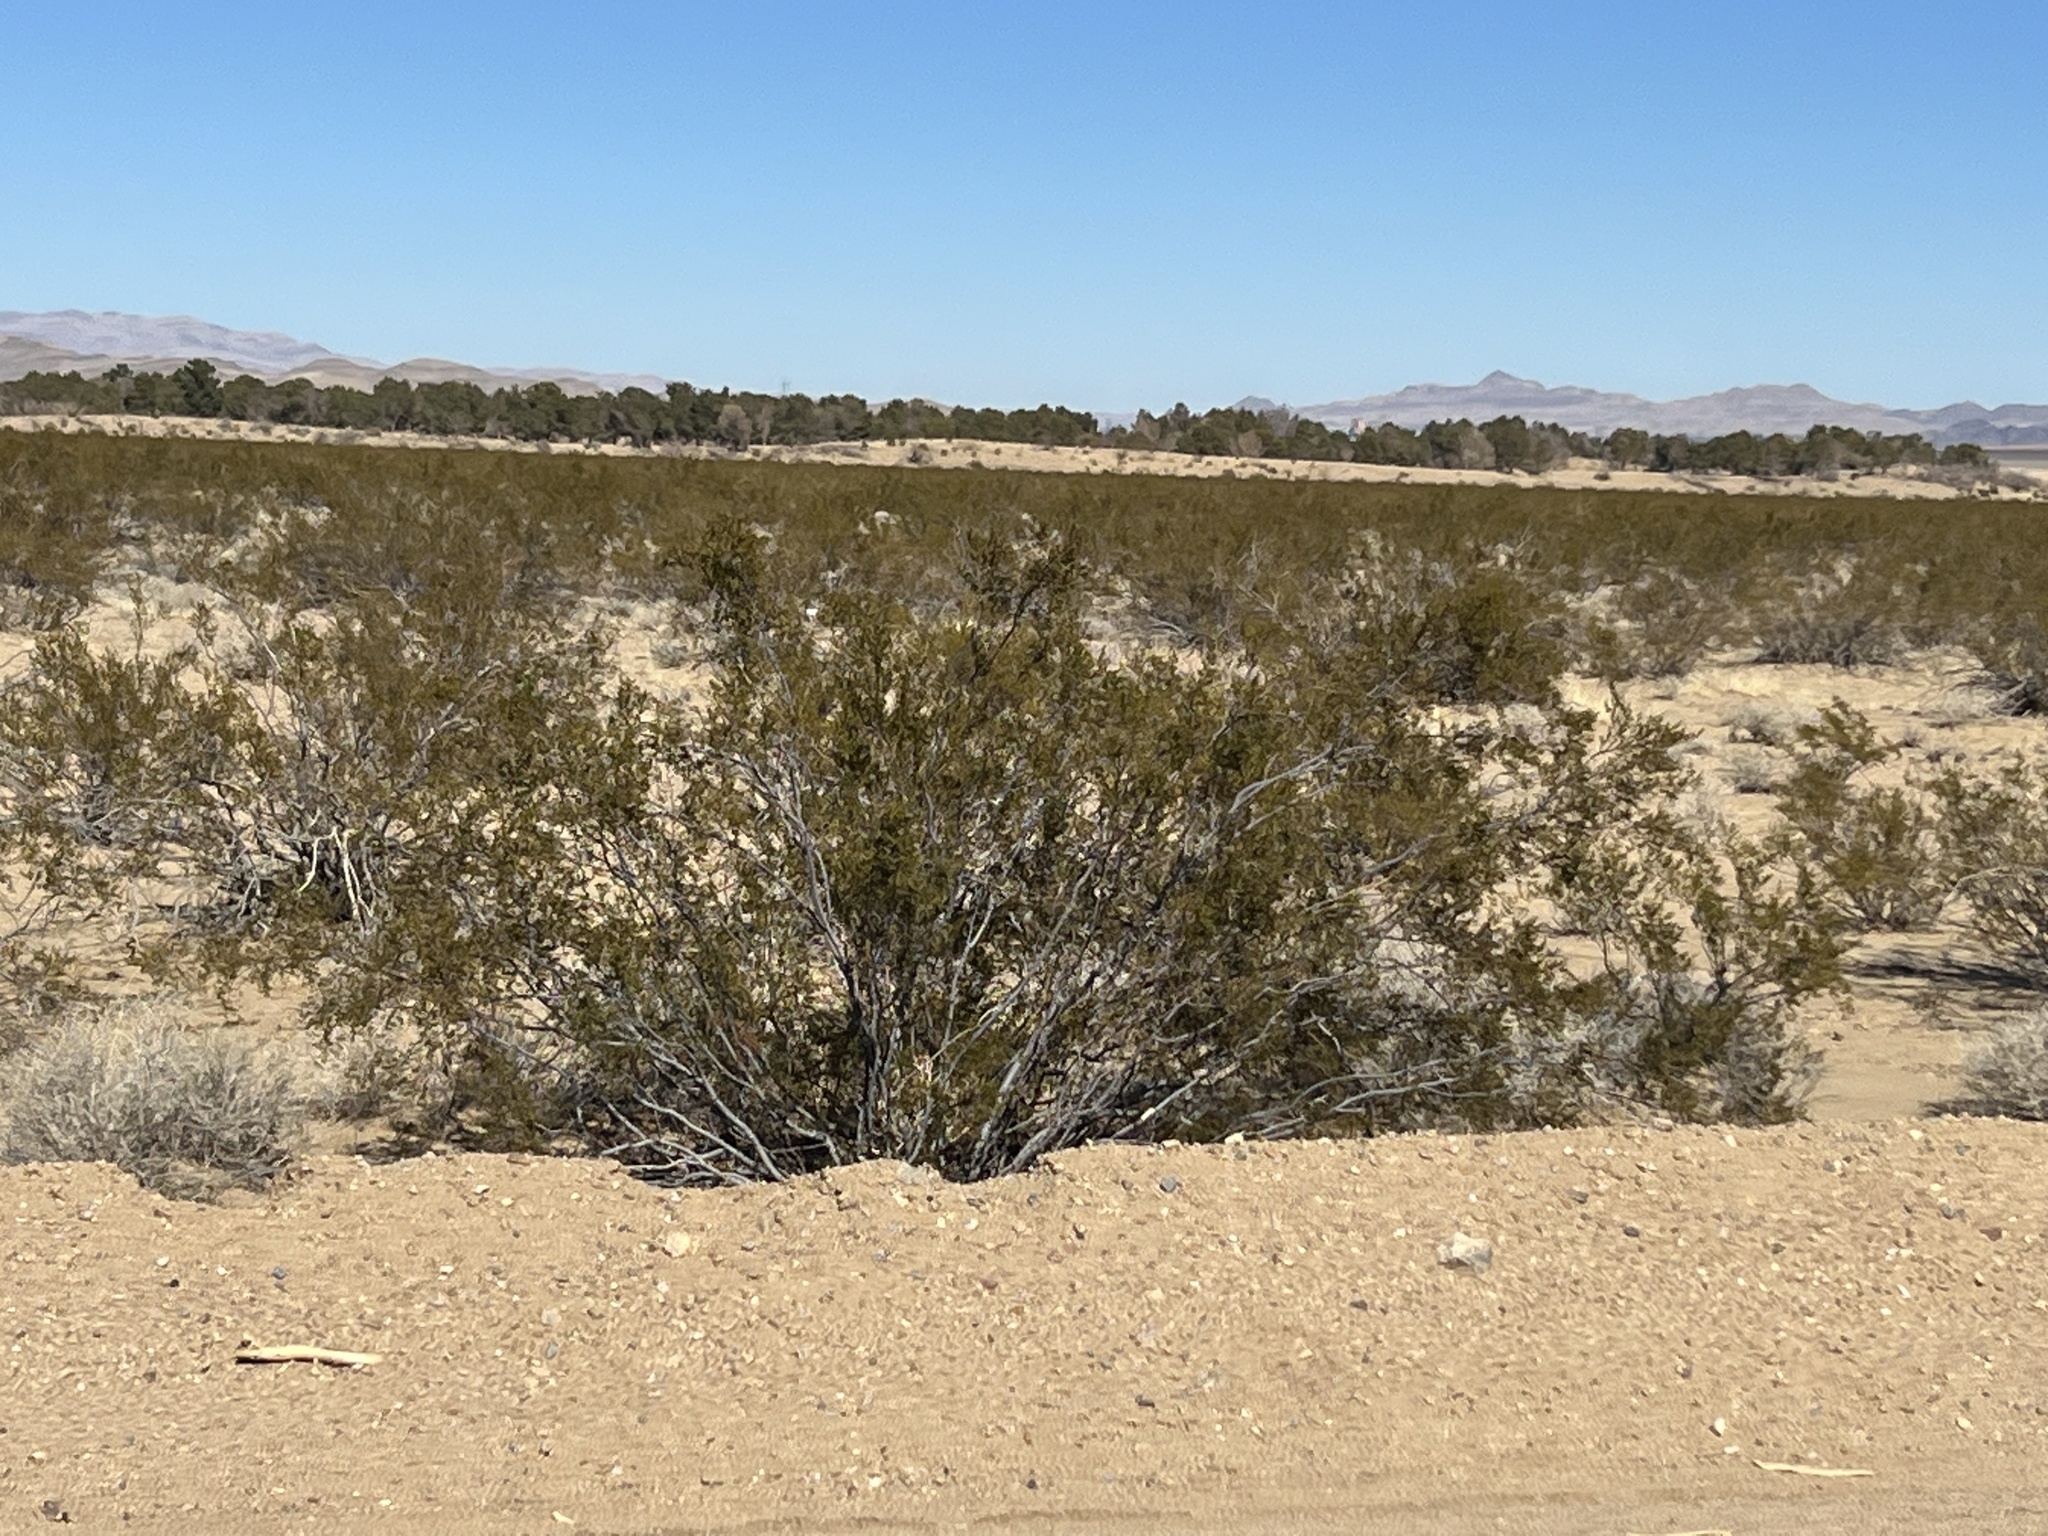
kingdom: Plantae
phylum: Tracheophyta
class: Magnoliopsida
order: Zygophyllales
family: Zygophyllaceae
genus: Larrea
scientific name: Larrea tridentata
